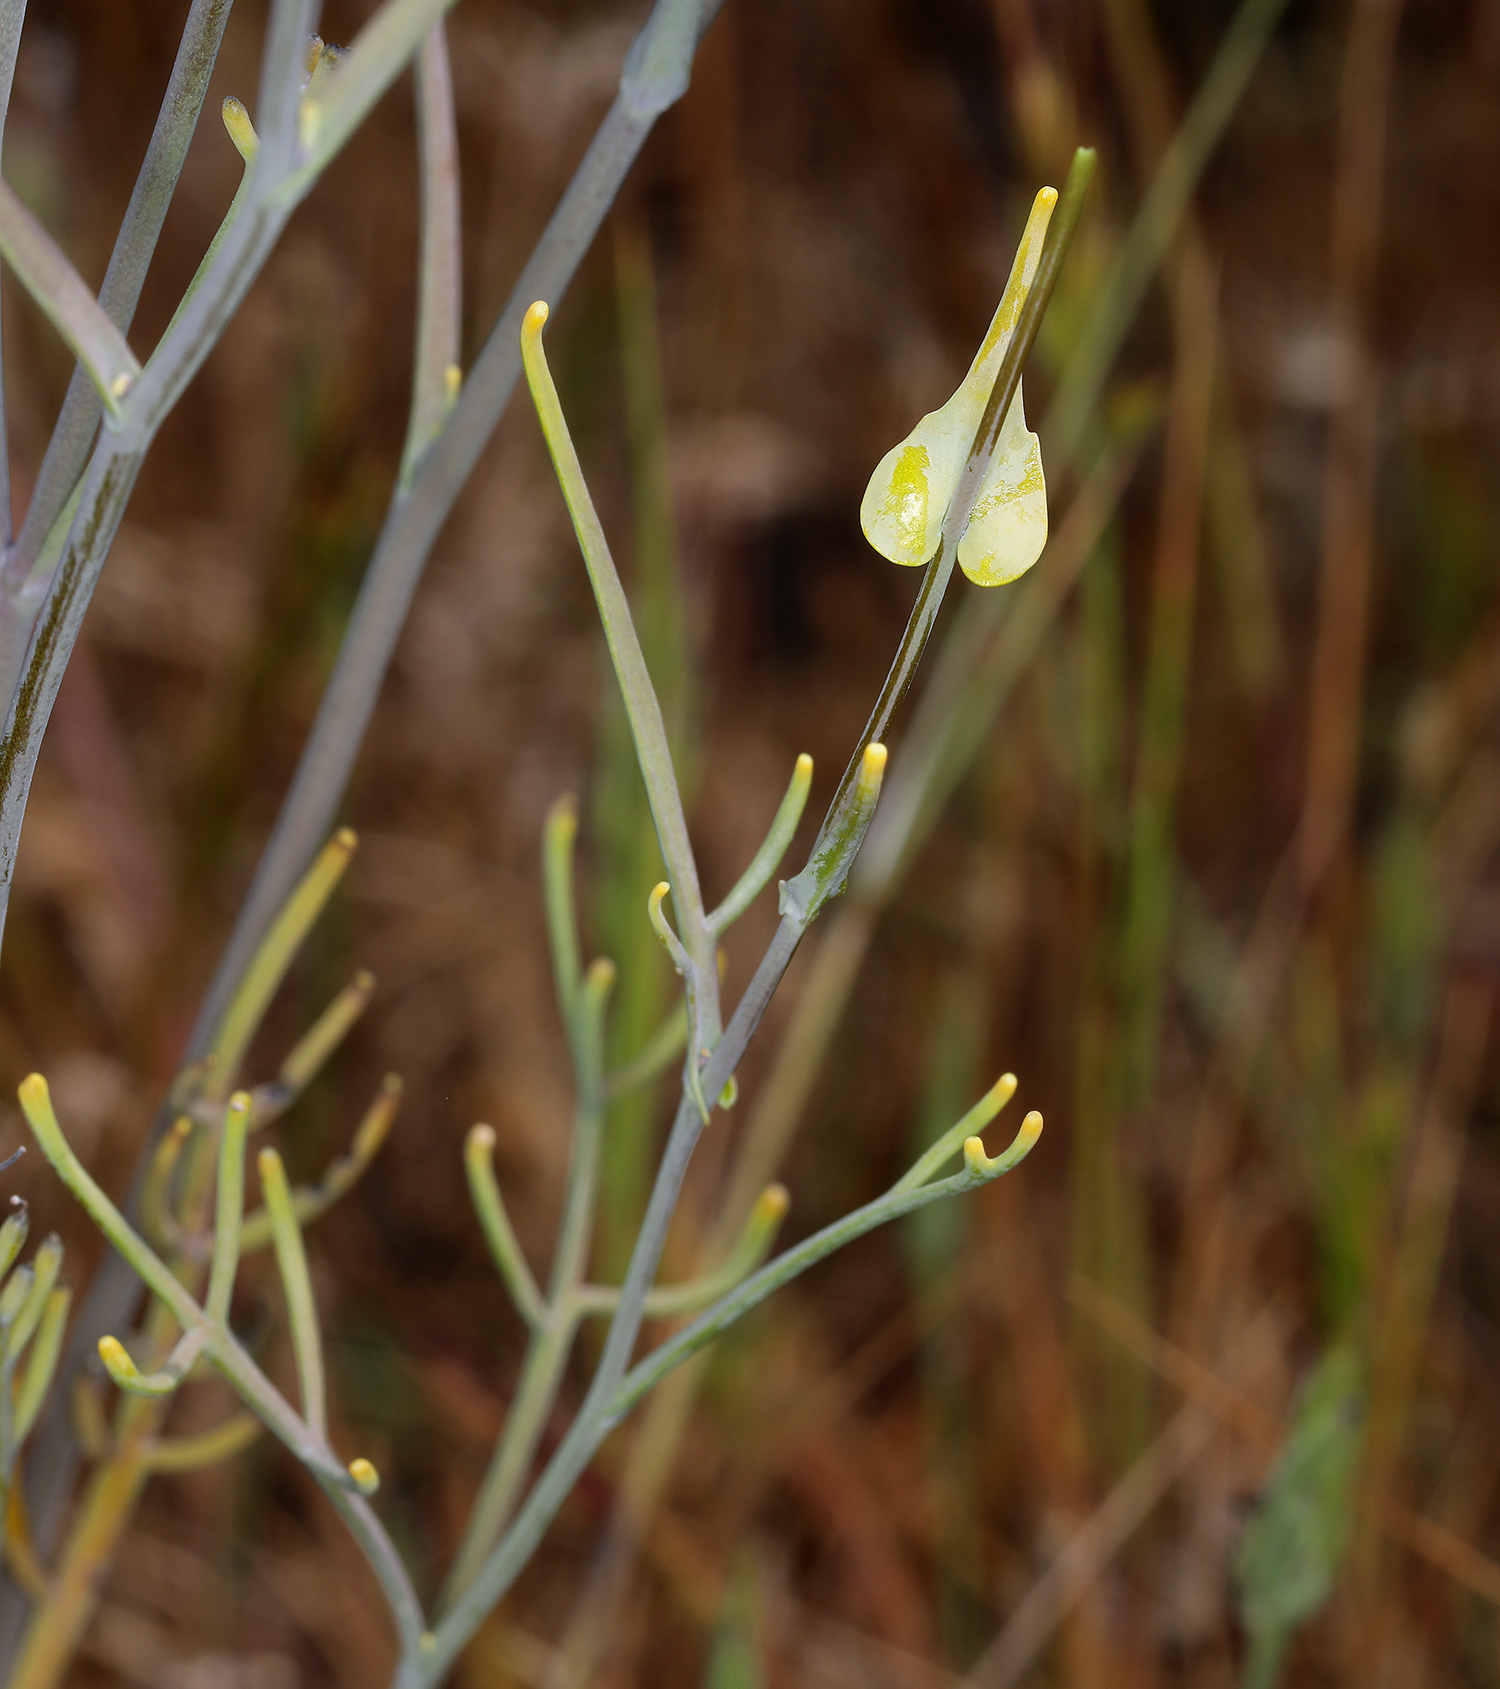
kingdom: Plantae
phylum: Tracheophyta
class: Magnoliopsida
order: Brassicales
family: Brassicaceae
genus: Streptanthus
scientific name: Streptanthus diversifolius
